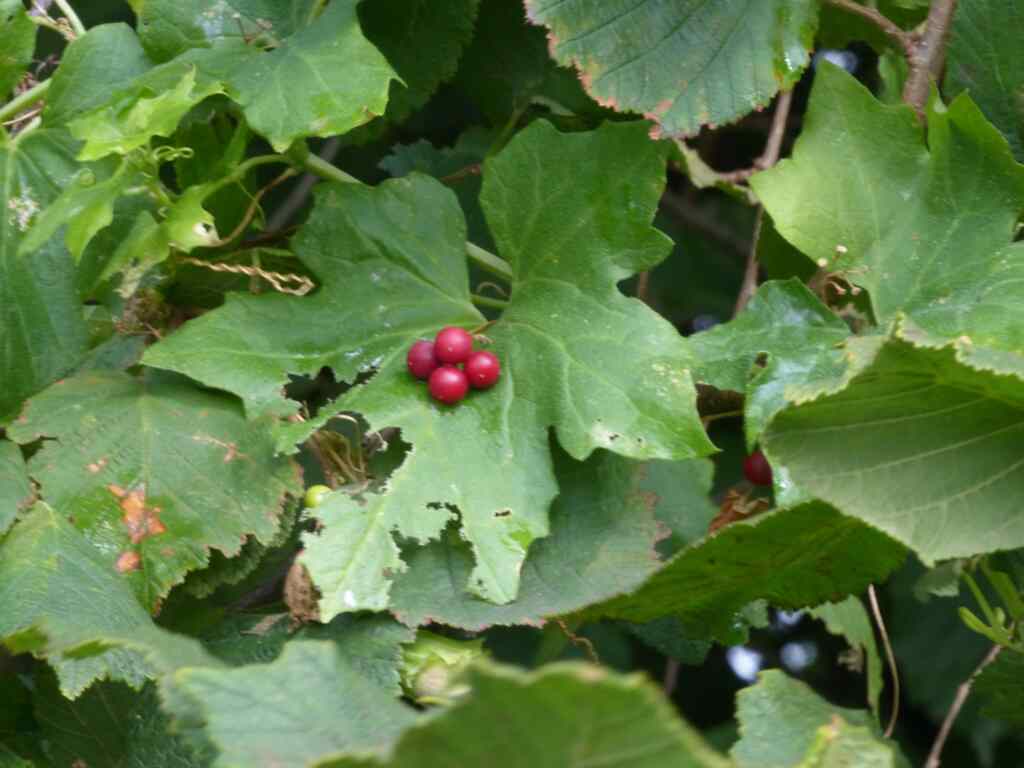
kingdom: Plantae
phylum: Tracheophyta
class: Magnoliopsida
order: Cucurbitales
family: Cucurbitaceae
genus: Bryonia
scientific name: Bryonia cretica
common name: Cretan bryony
